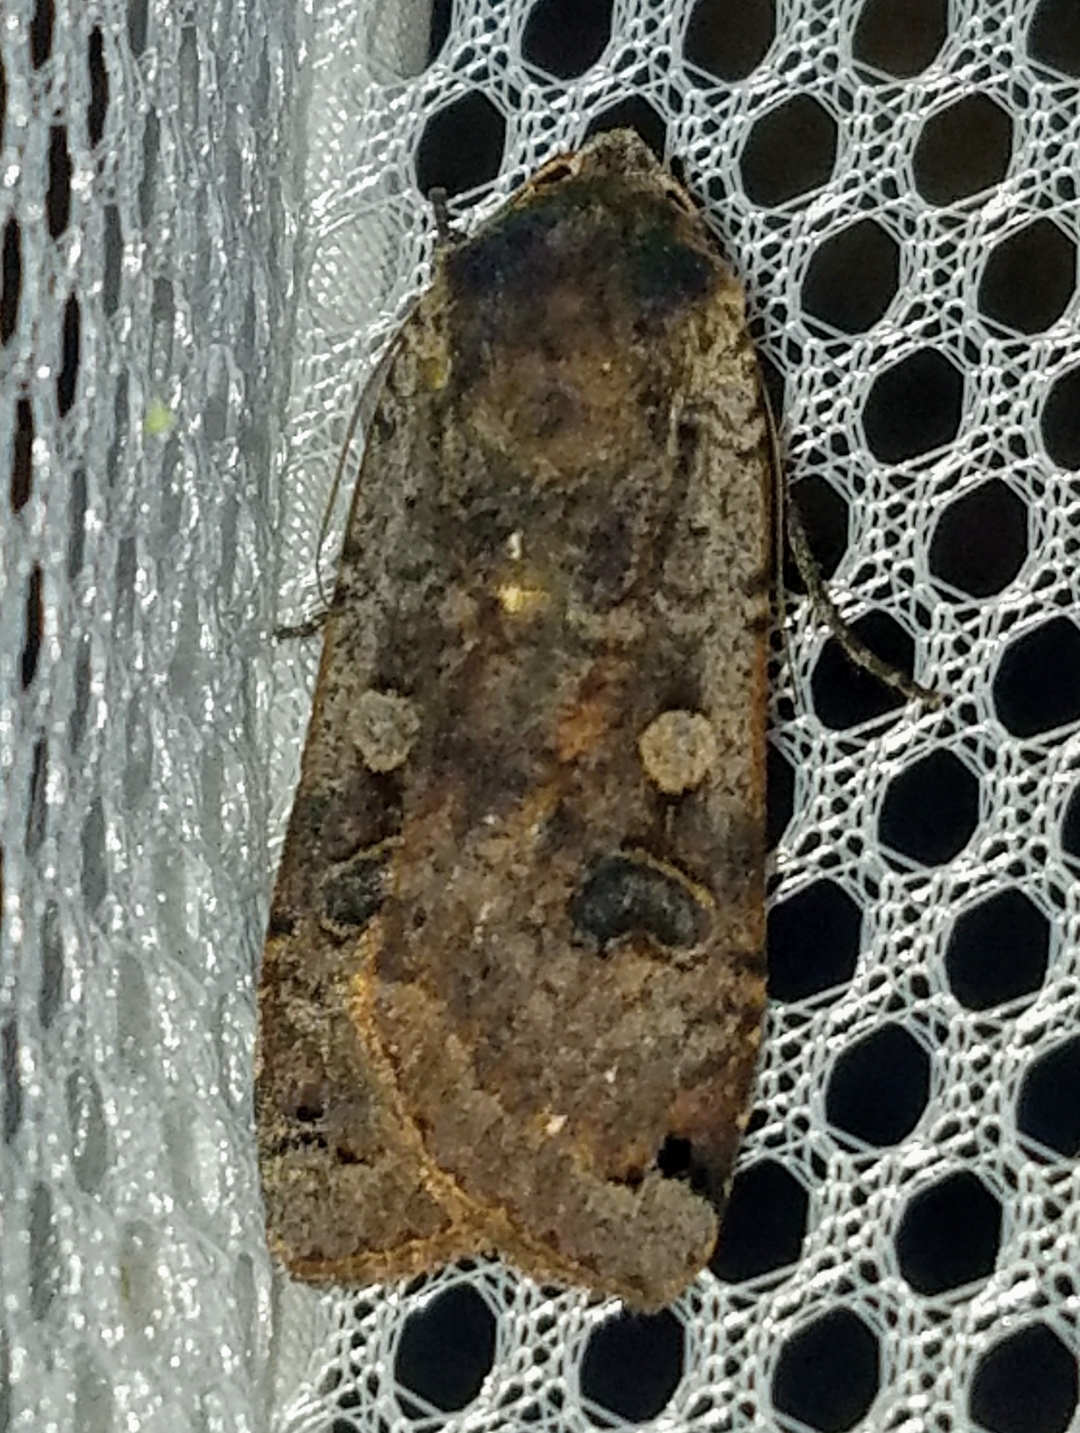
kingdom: Animalia
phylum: Arthropoda
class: Insecta
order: Lepidoptera
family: Noctuidae
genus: Noctua
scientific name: Noctua pronuba
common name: Large yellow underwing
